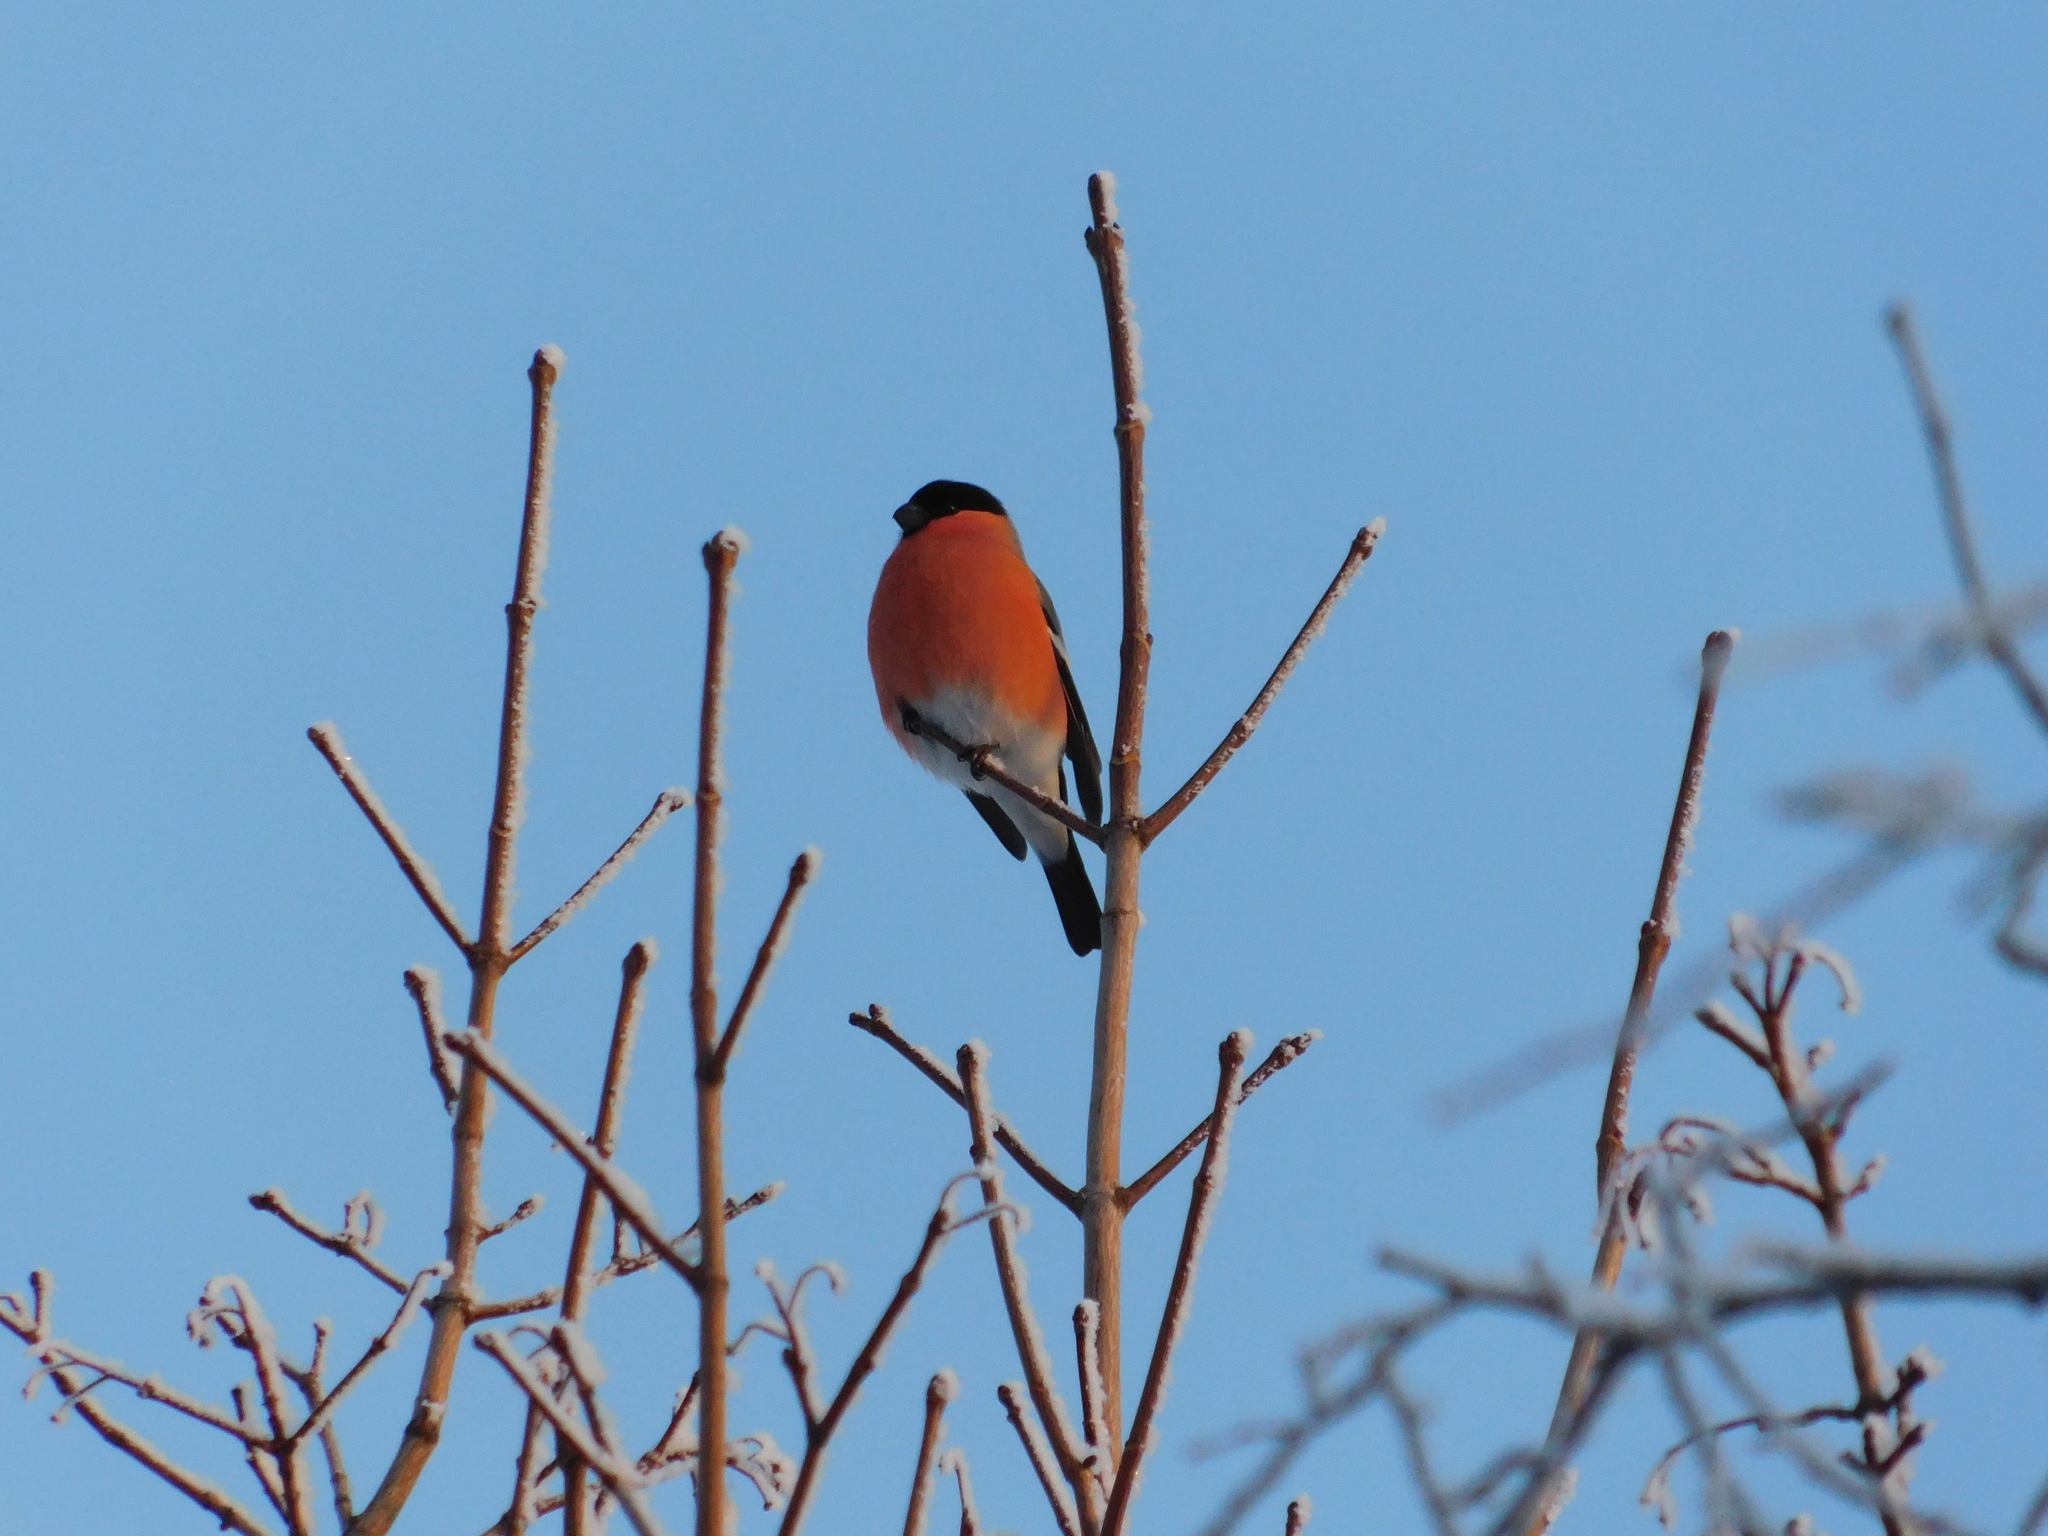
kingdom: Animalia
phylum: Chordata
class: Aves
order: Passeriformes
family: Fringillidae
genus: Pyrrhula
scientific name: Pyrrhula pyrrhula
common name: Eurasian bullfinch
